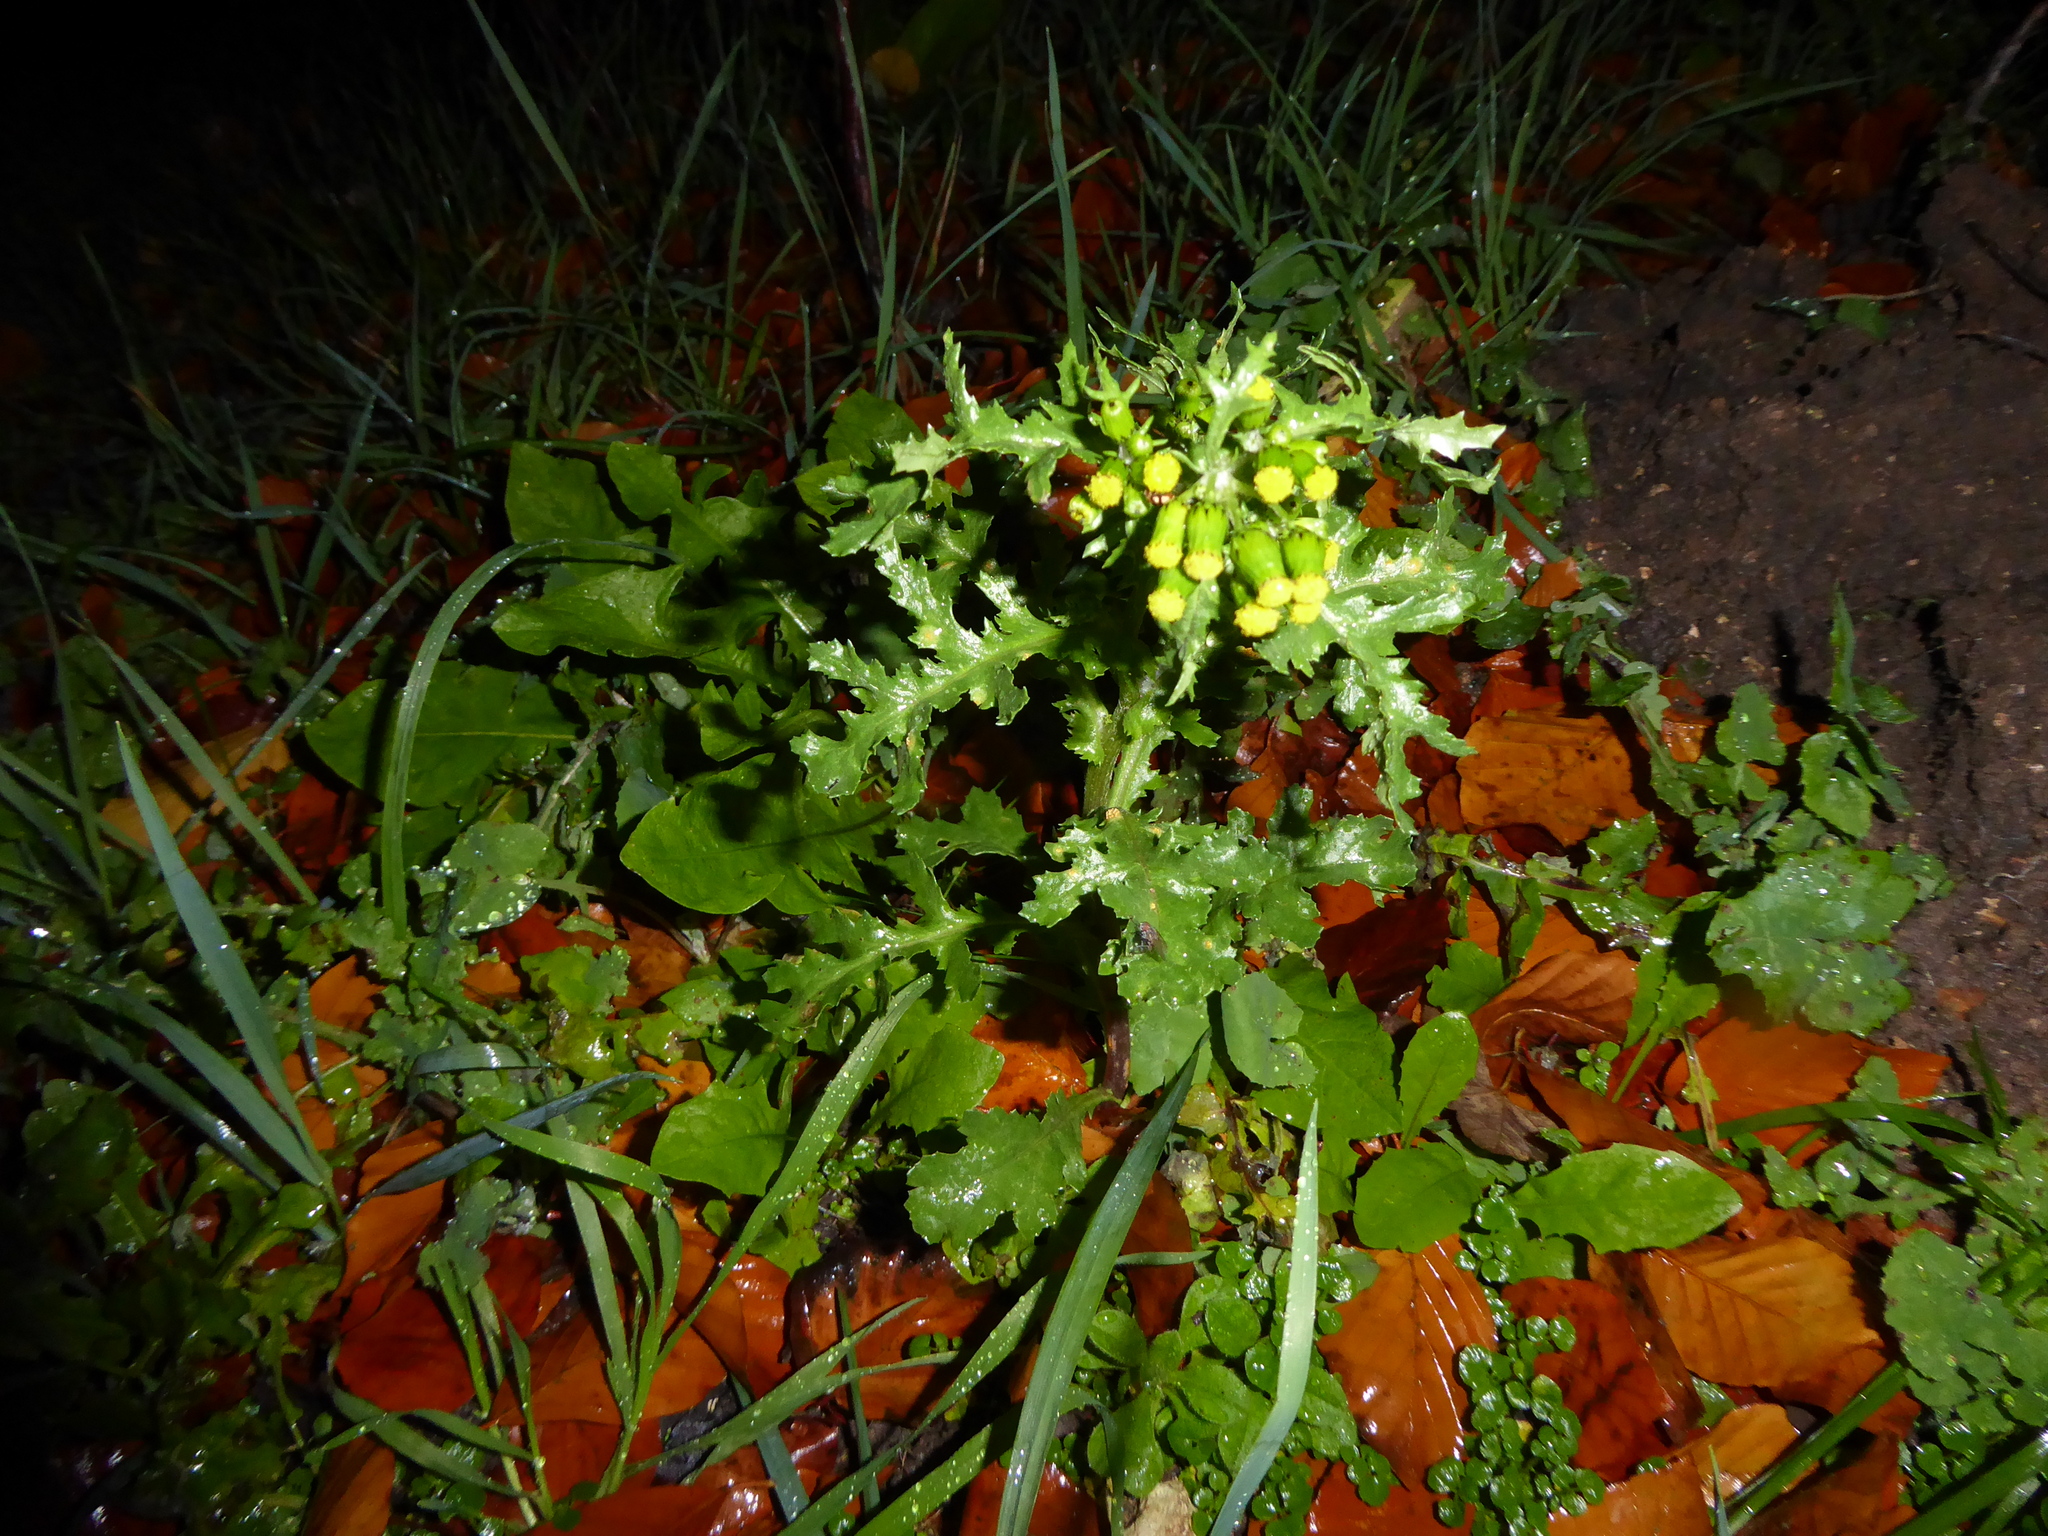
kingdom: Plantae
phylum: Tracheophyta
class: Magnoliopsida
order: Asterales
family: Asteraceae
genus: Senecio
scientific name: Senecio vulgaris
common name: Old-man-in-the-spring
